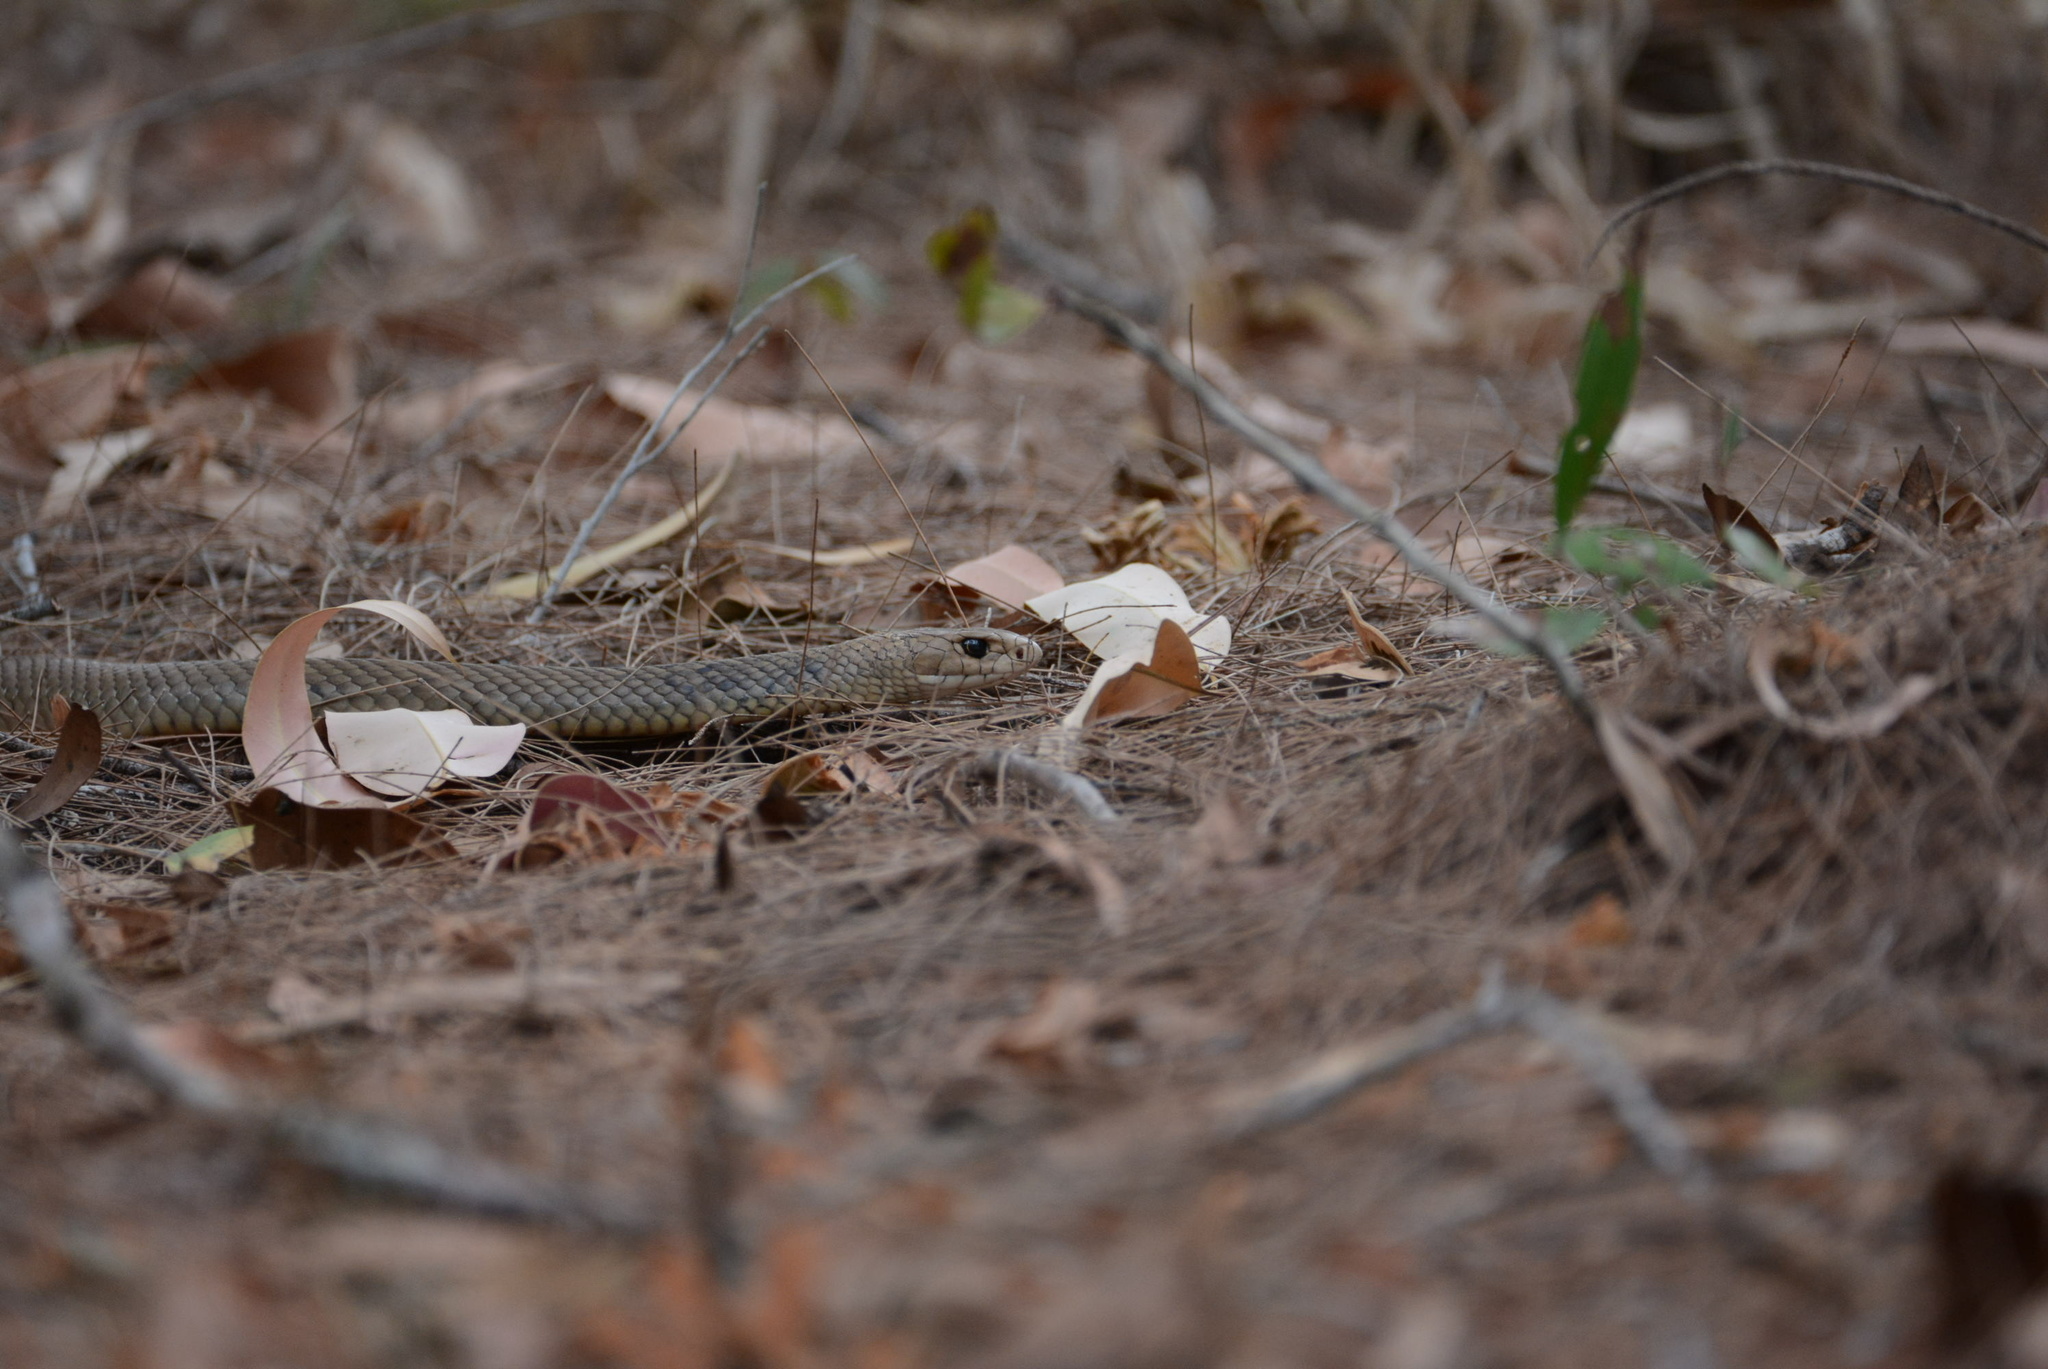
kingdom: Animalia
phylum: Chordata
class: Squamata
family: Elapidae
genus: Pseudonaja
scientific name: Pseudonaja textilis
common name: Eastern brown snake
